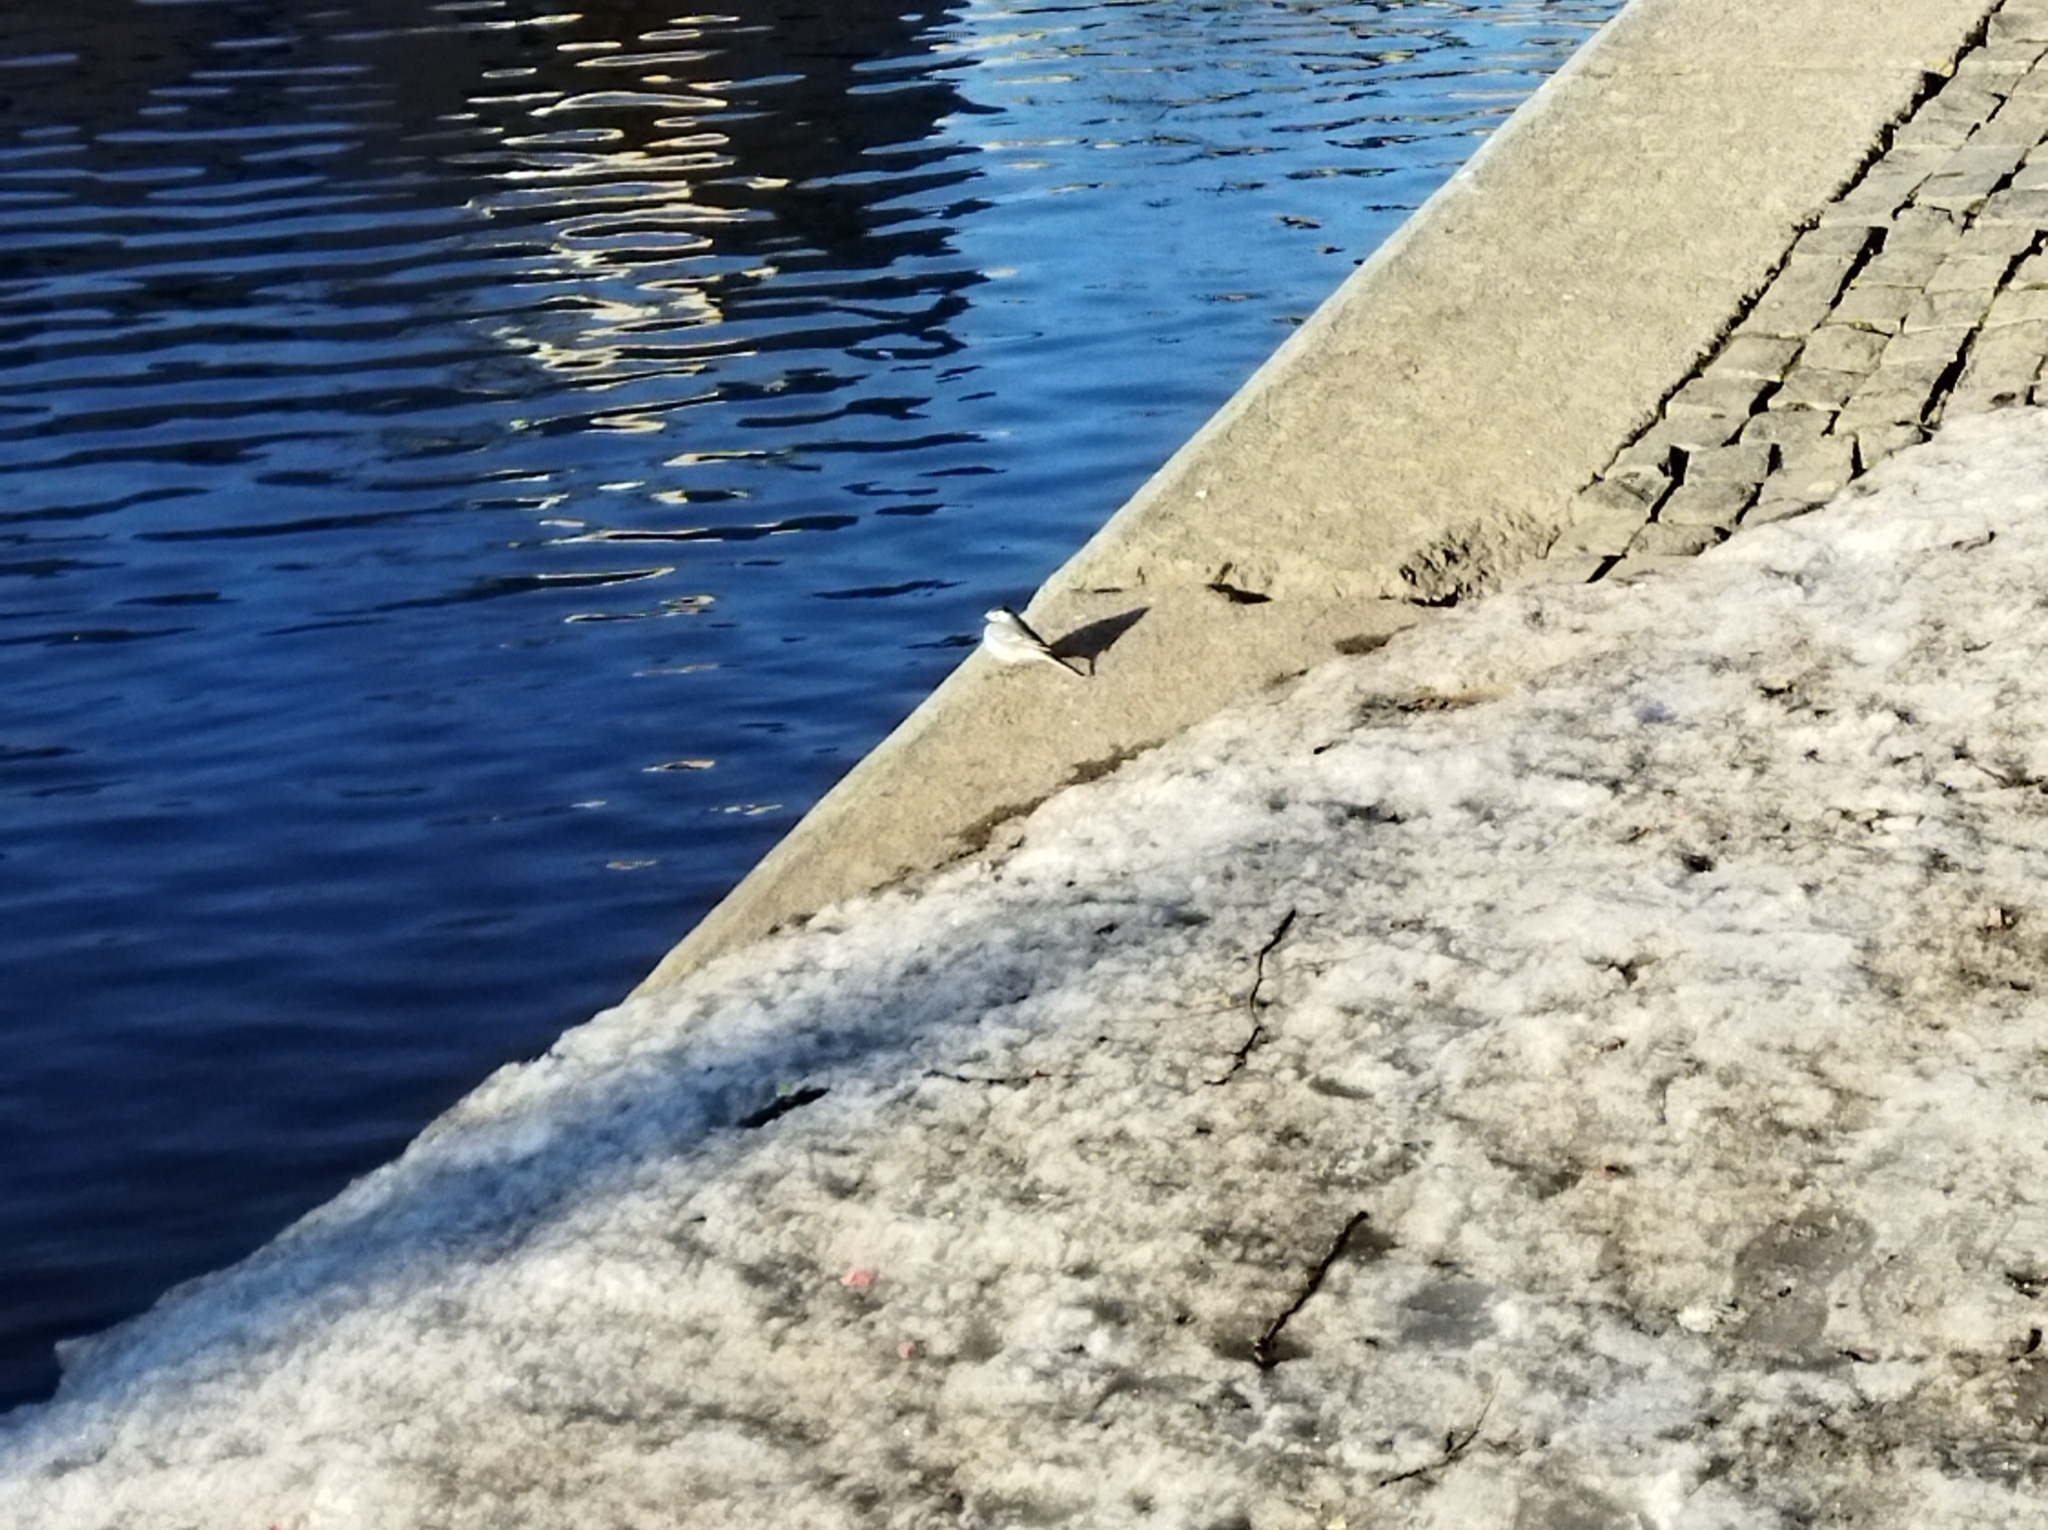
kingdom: Animalia
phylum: Chordata
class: Aves
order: Passeriformes
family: Motacillidae
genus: Motacilla
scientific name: Motacilla alba
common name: White wagtail
